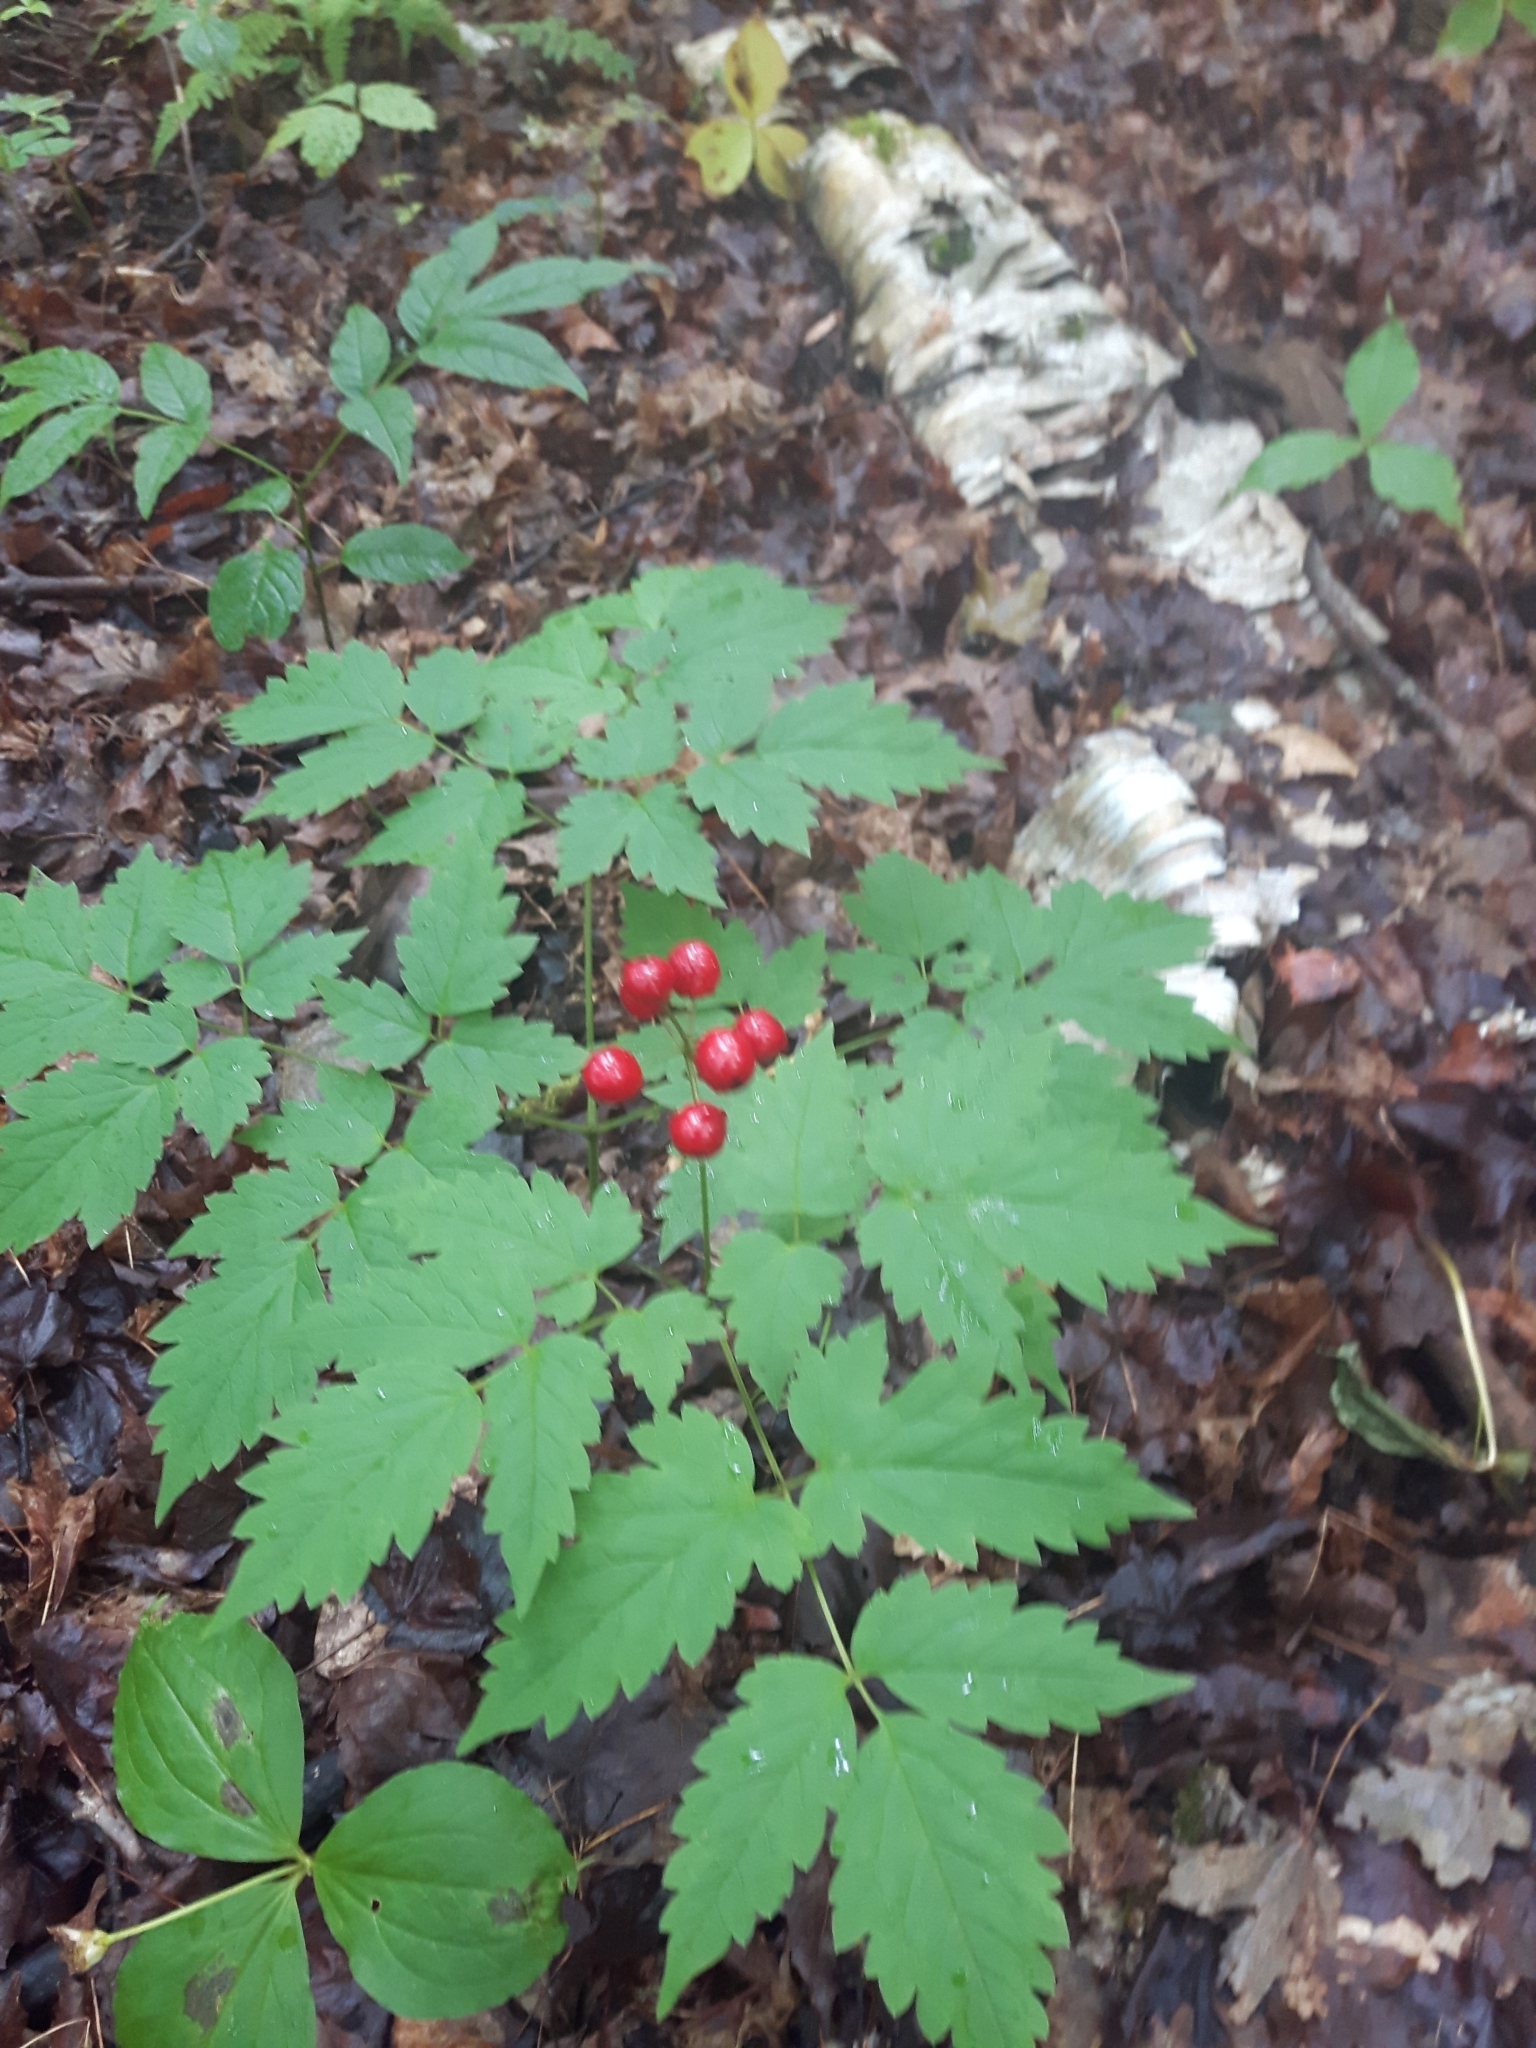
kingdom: Plantae
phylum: Tracheophyta
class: Magnoliopsida
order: Ranunculales
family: Ranunculaceae
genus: Actaea
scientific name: Actaea rubra
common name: Red baneberry
